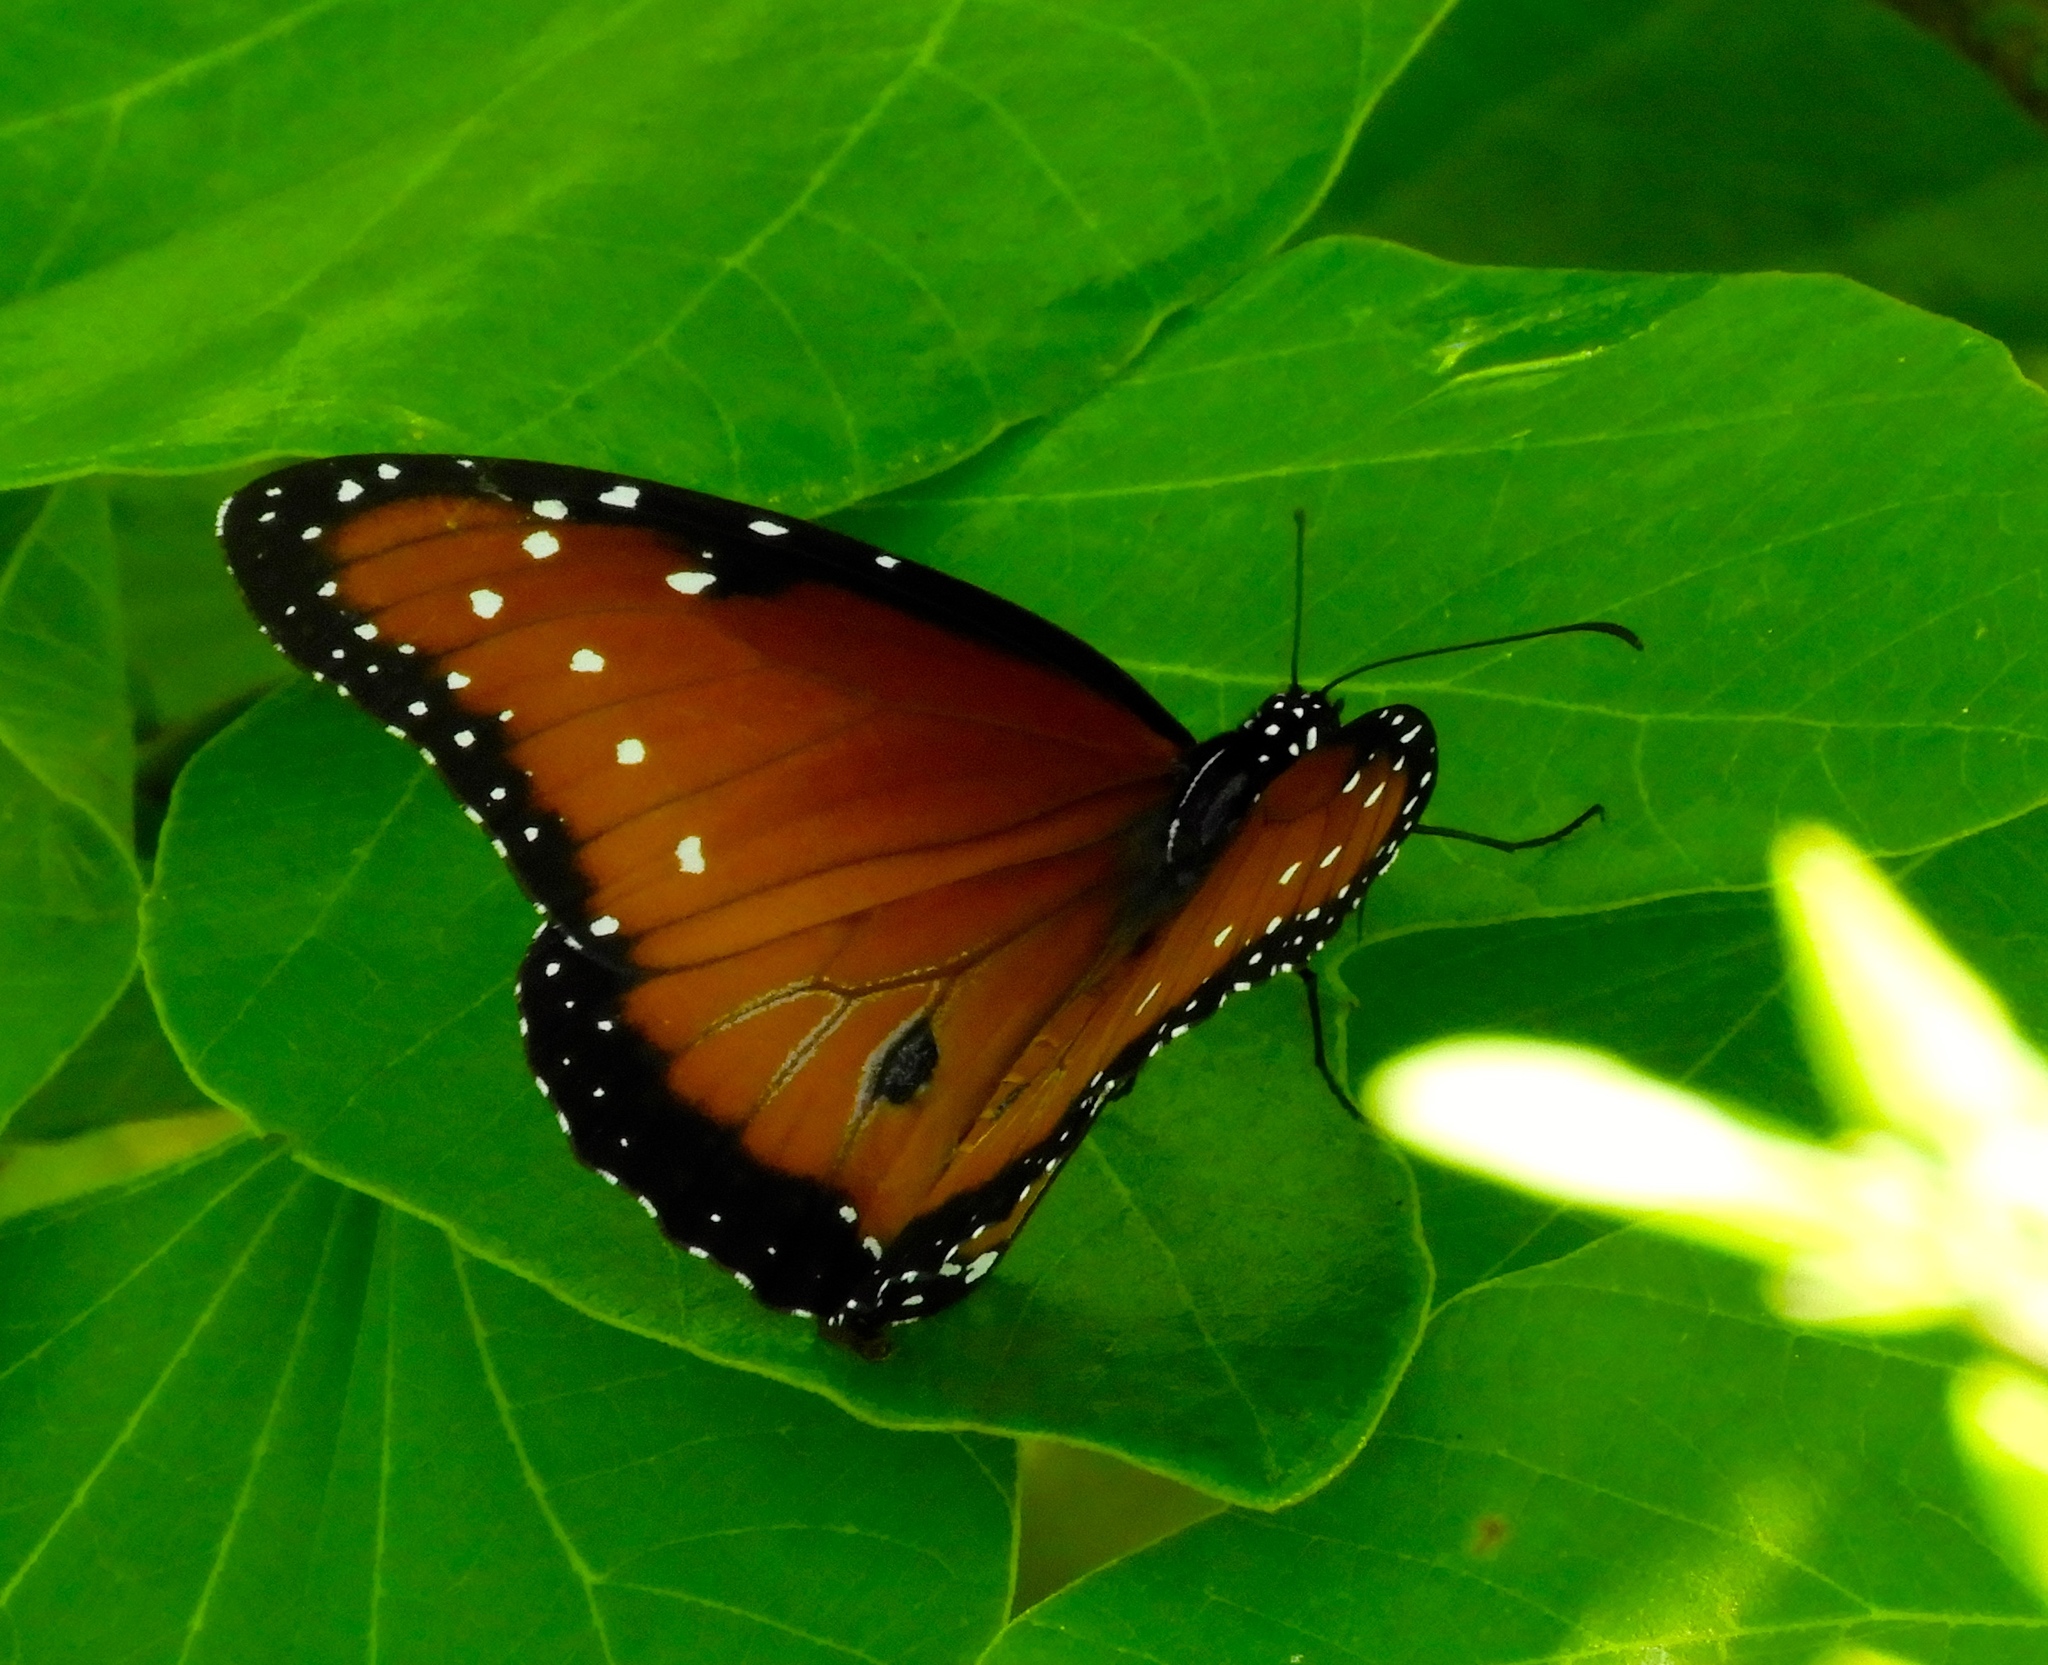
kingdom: Animalia
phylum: Arthropoda
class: Insecta
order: Lepidoptera
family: Nymphalidae
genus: Danaus
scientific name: Danaus gilippus
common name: Queen
